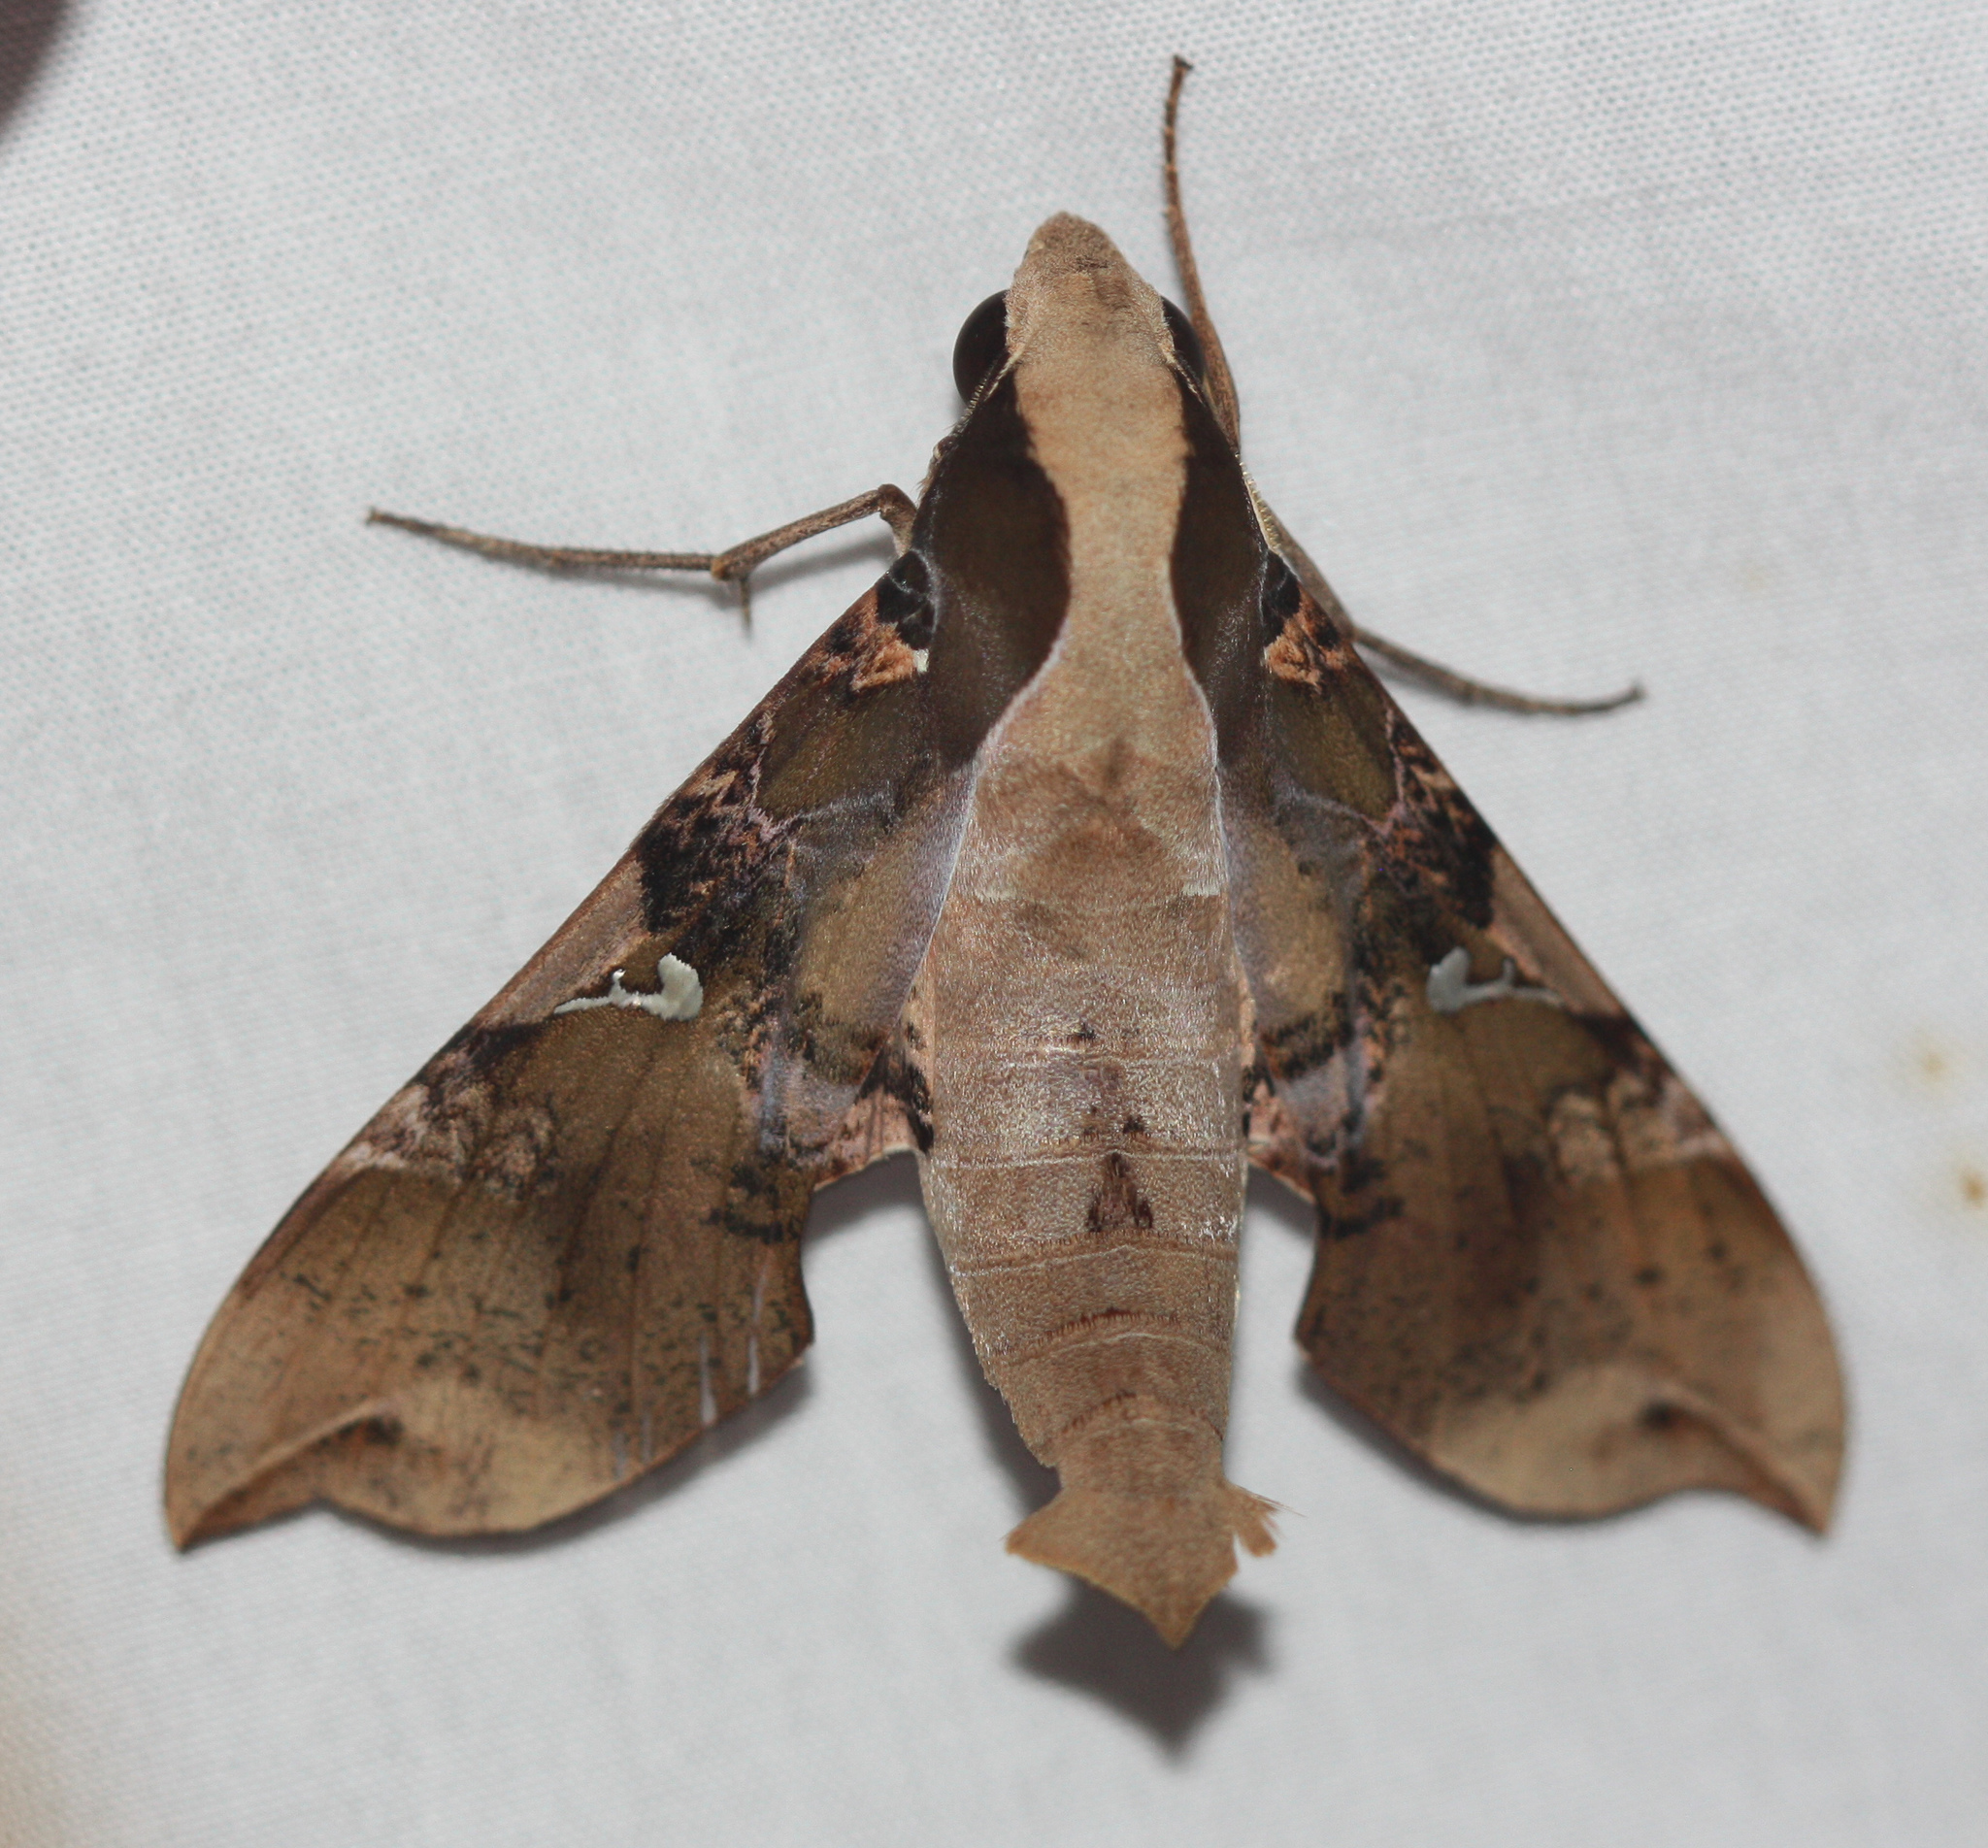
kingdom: Animalia
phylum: Arthropoda
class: Insecta
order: Lepidoptera
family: Sphingidae
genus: Callionima
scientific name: Callionima parce
